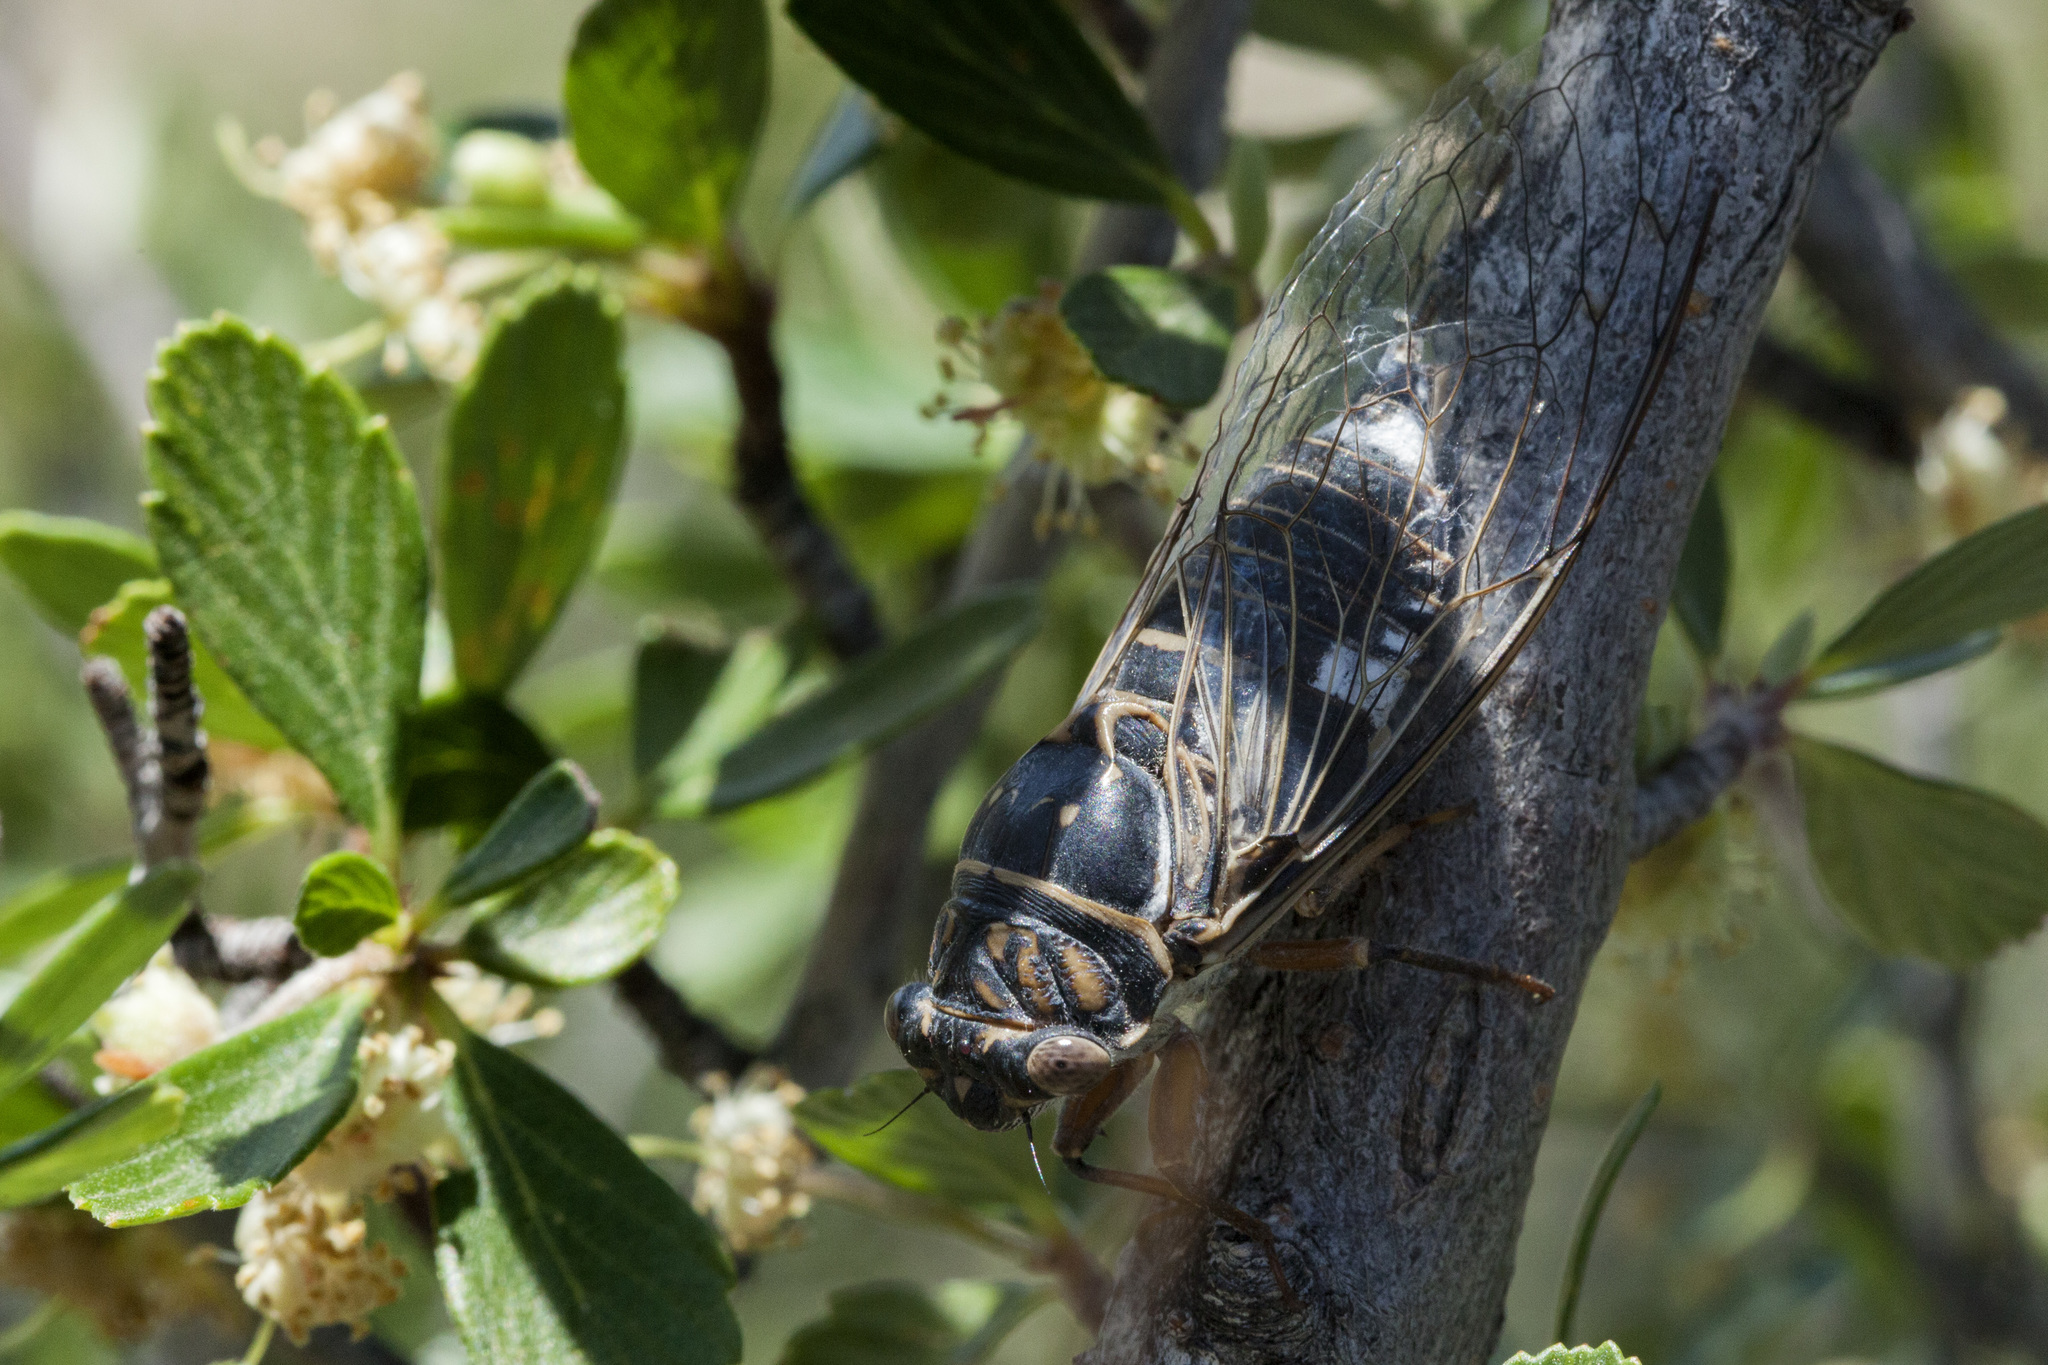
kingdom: Animalia
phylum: Arthropoda
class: Insecta
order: Hemiptera
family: Cicadidae
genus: Hadoa
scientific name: Hadoa inaudita
